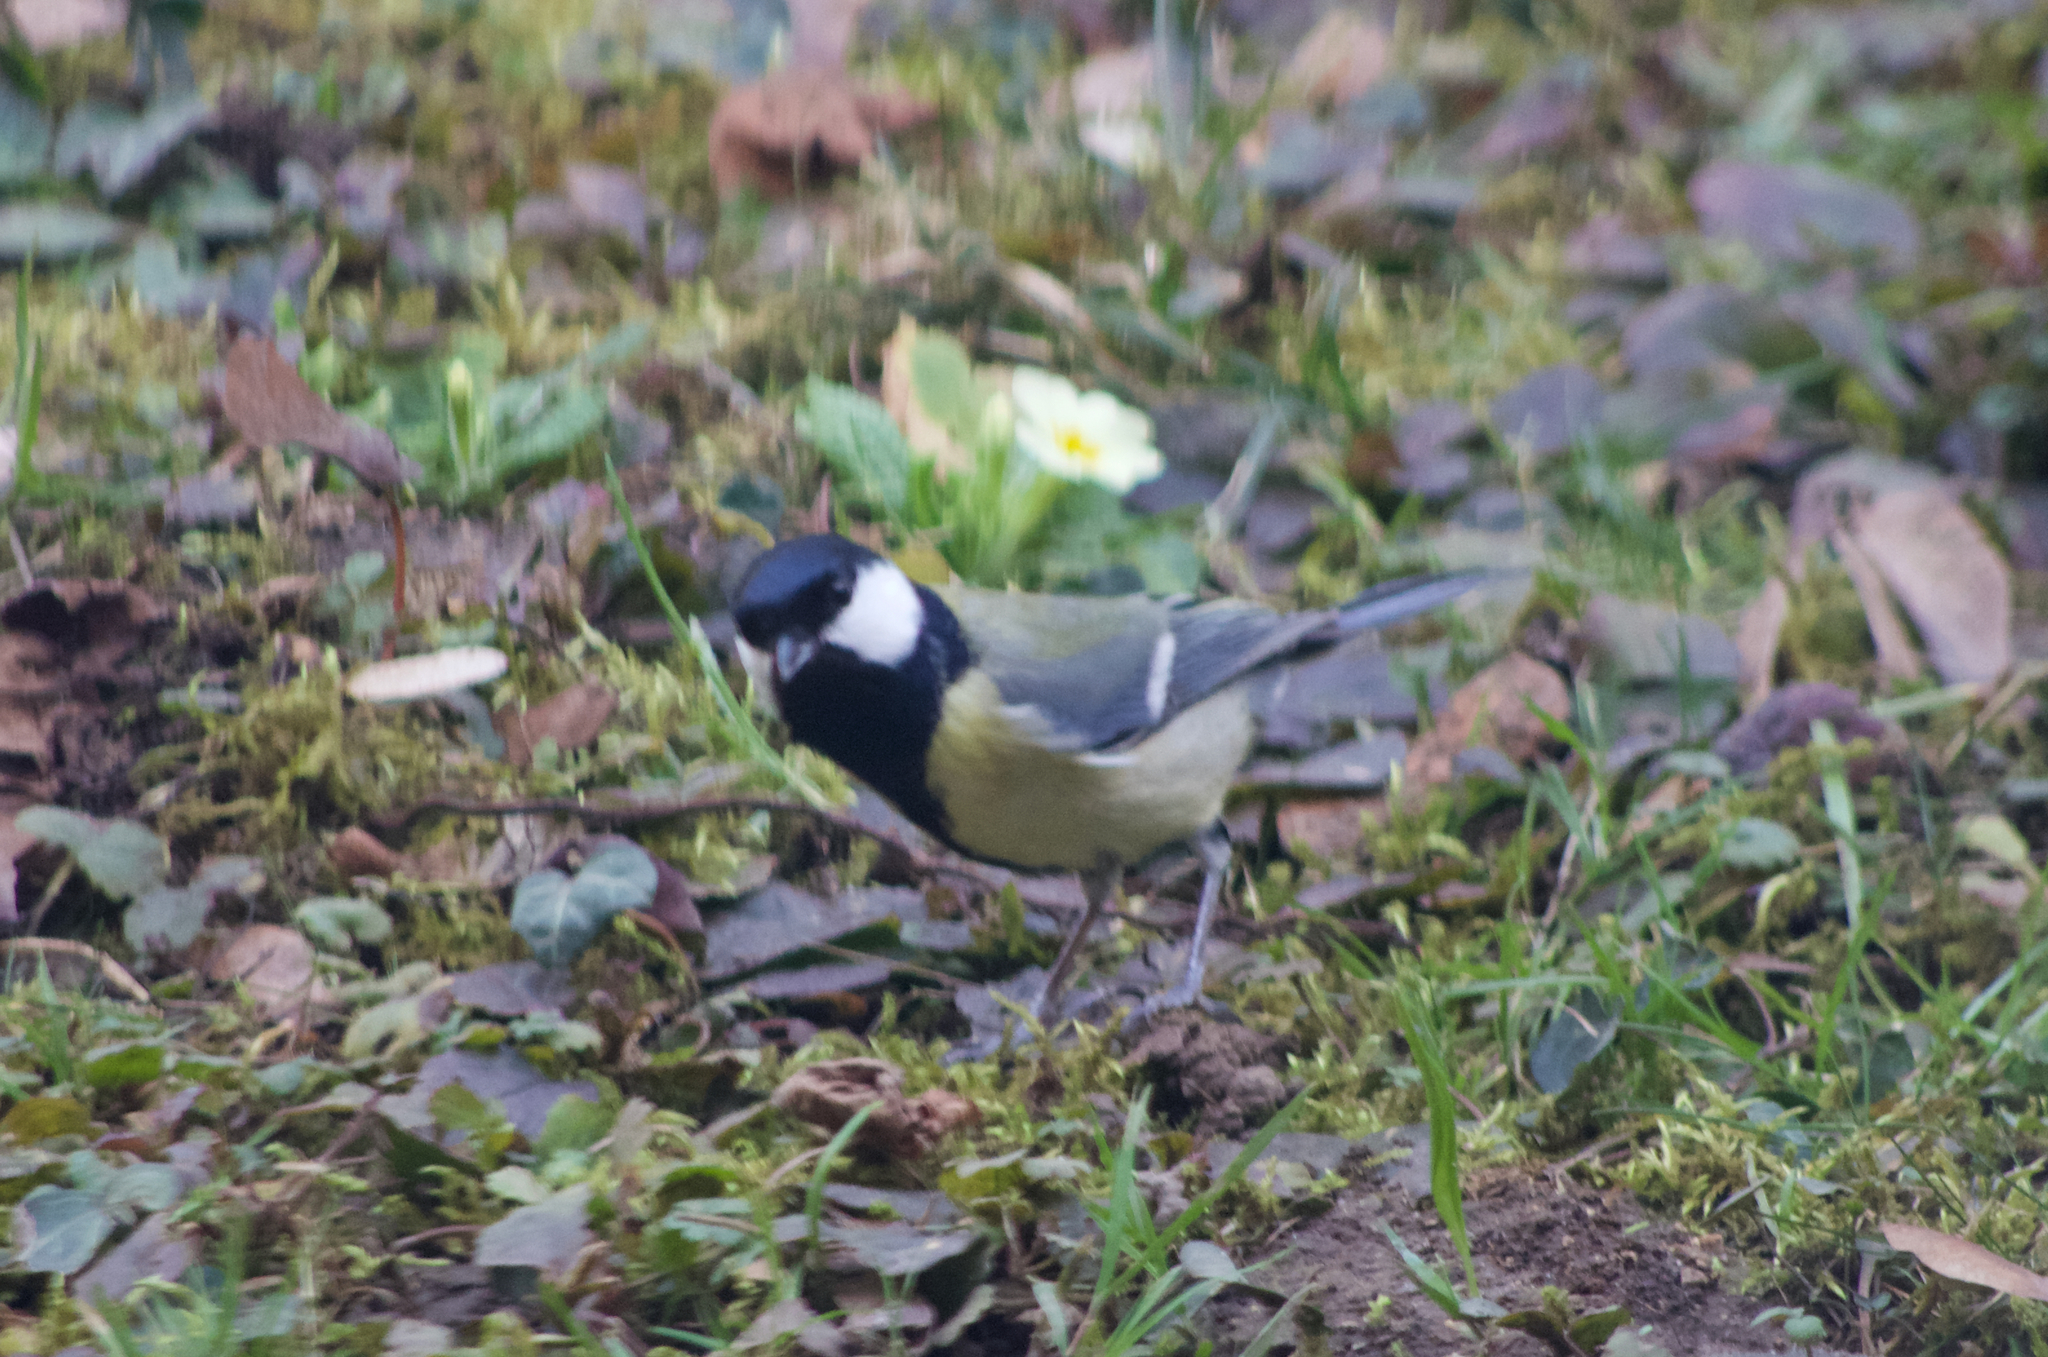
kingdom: Animalia
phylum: Chordata
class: Aves
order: Passeriformes
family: Paridae
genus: Parus
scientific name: Parus major
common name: Great tit
